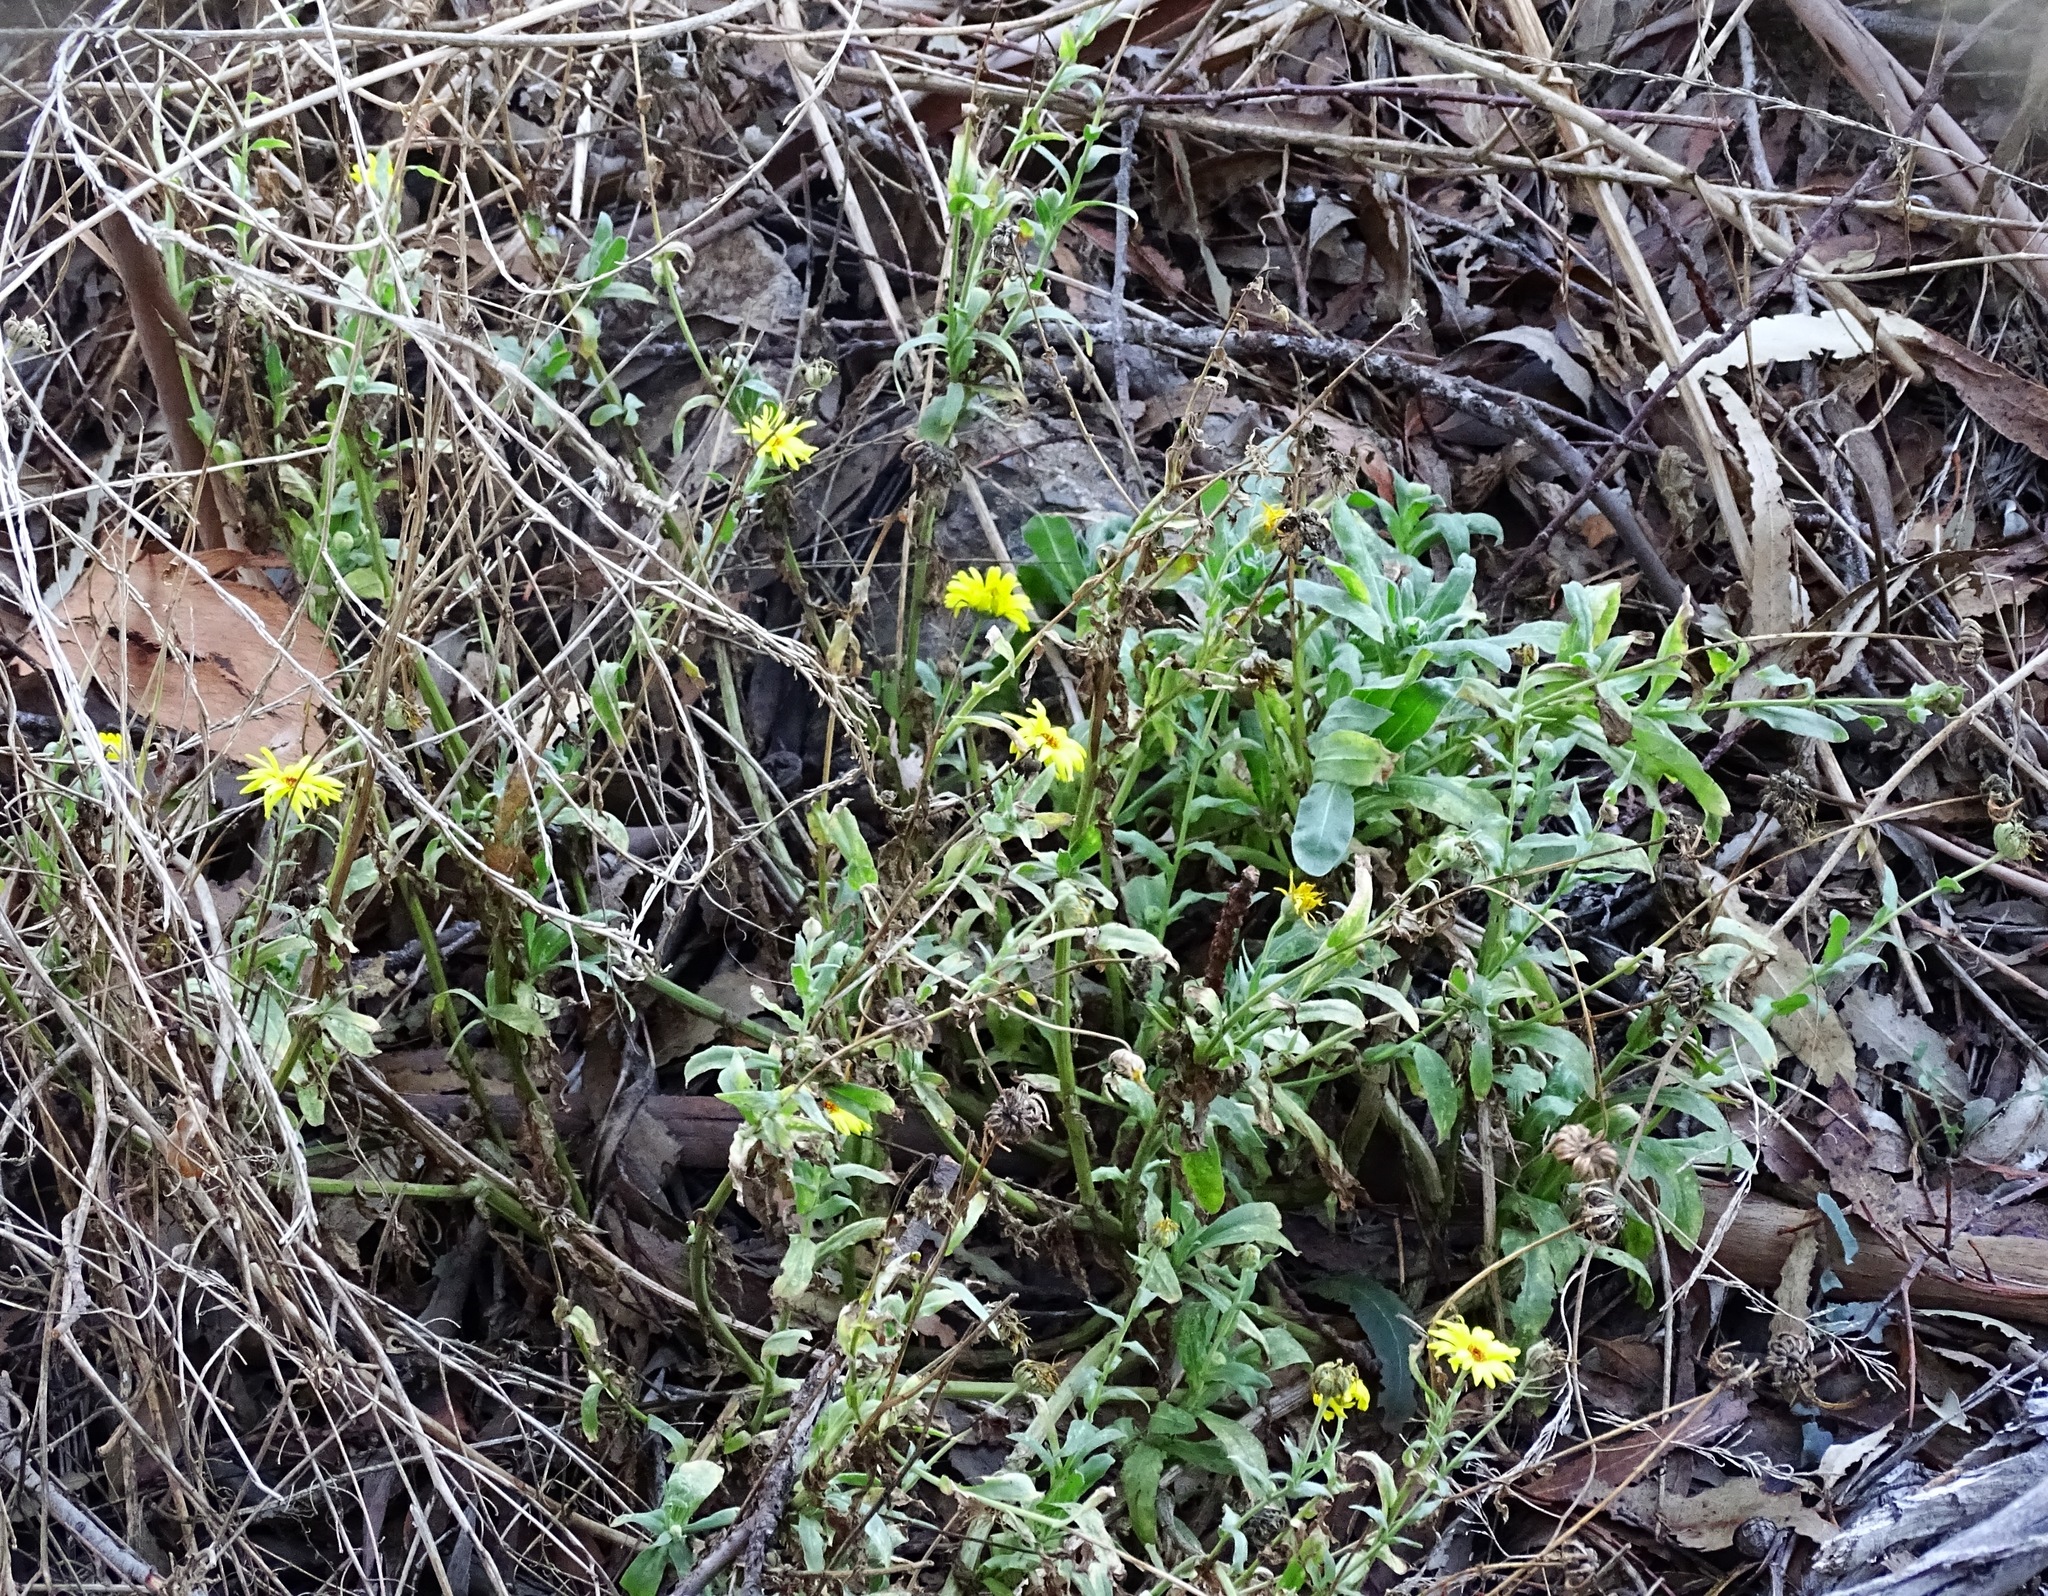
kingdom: Plantae
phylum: Tracheophyta
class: Magnoliopsida
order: Asterales
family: Asteraceae
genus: Encelia
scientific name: Encelia californica
